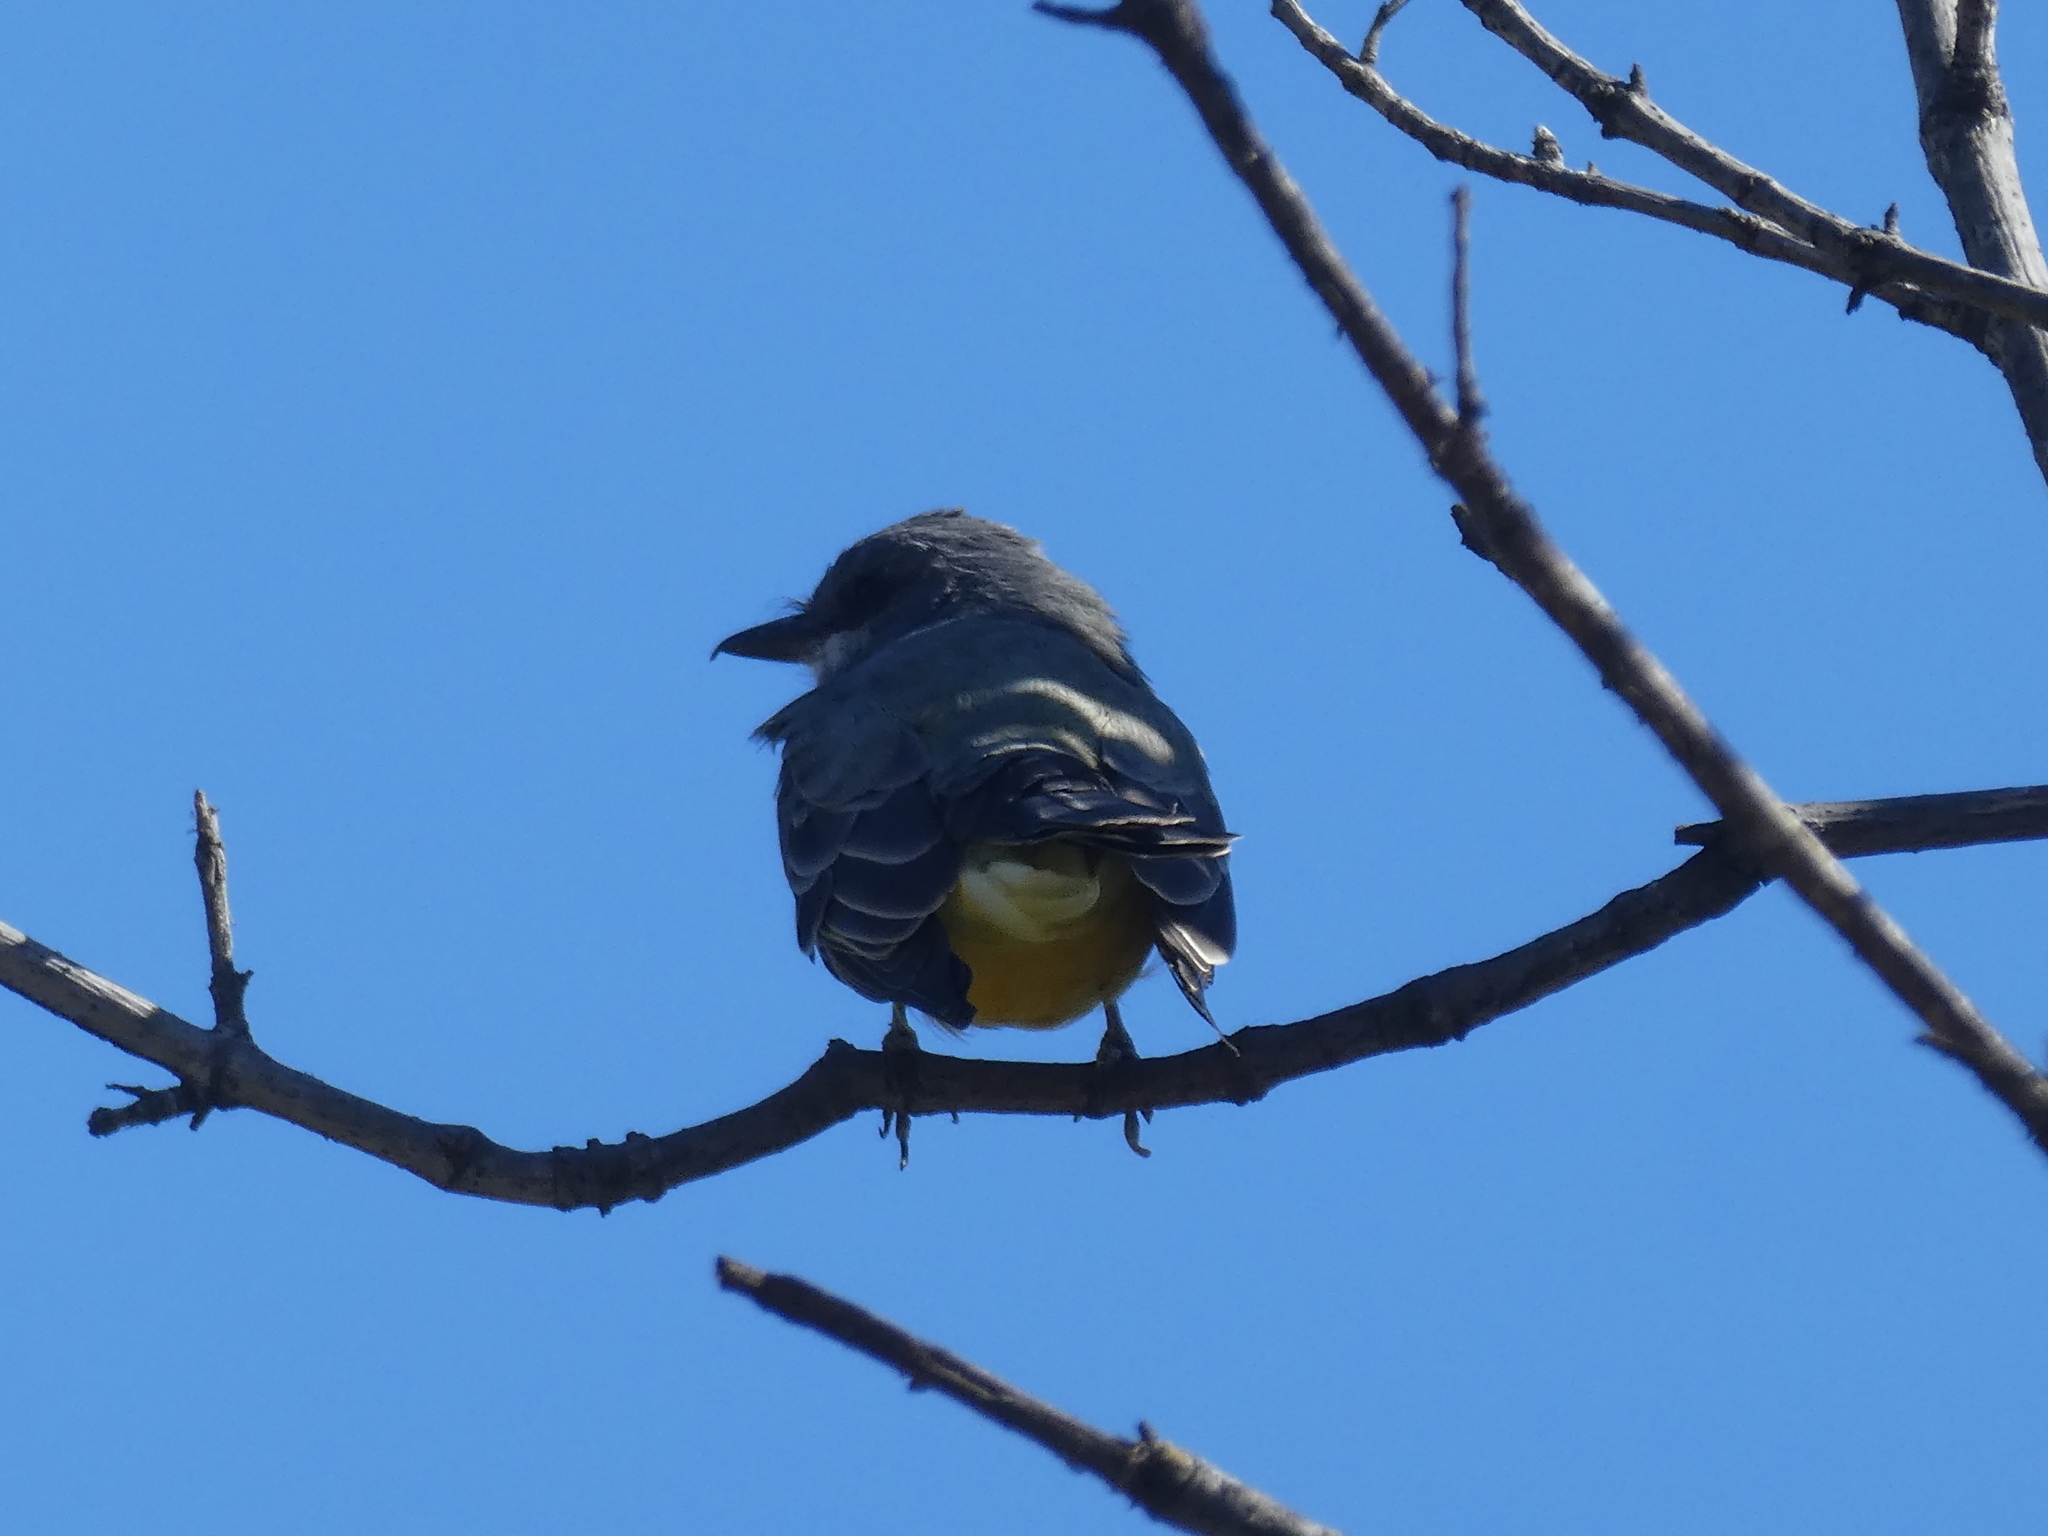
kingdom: Animalia
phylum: Chordata
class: Aves
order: Passeriformes
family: Tyrannidae
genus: Tyrannus
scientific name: Tyrannus vociferans
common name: Cassin's kingbird
